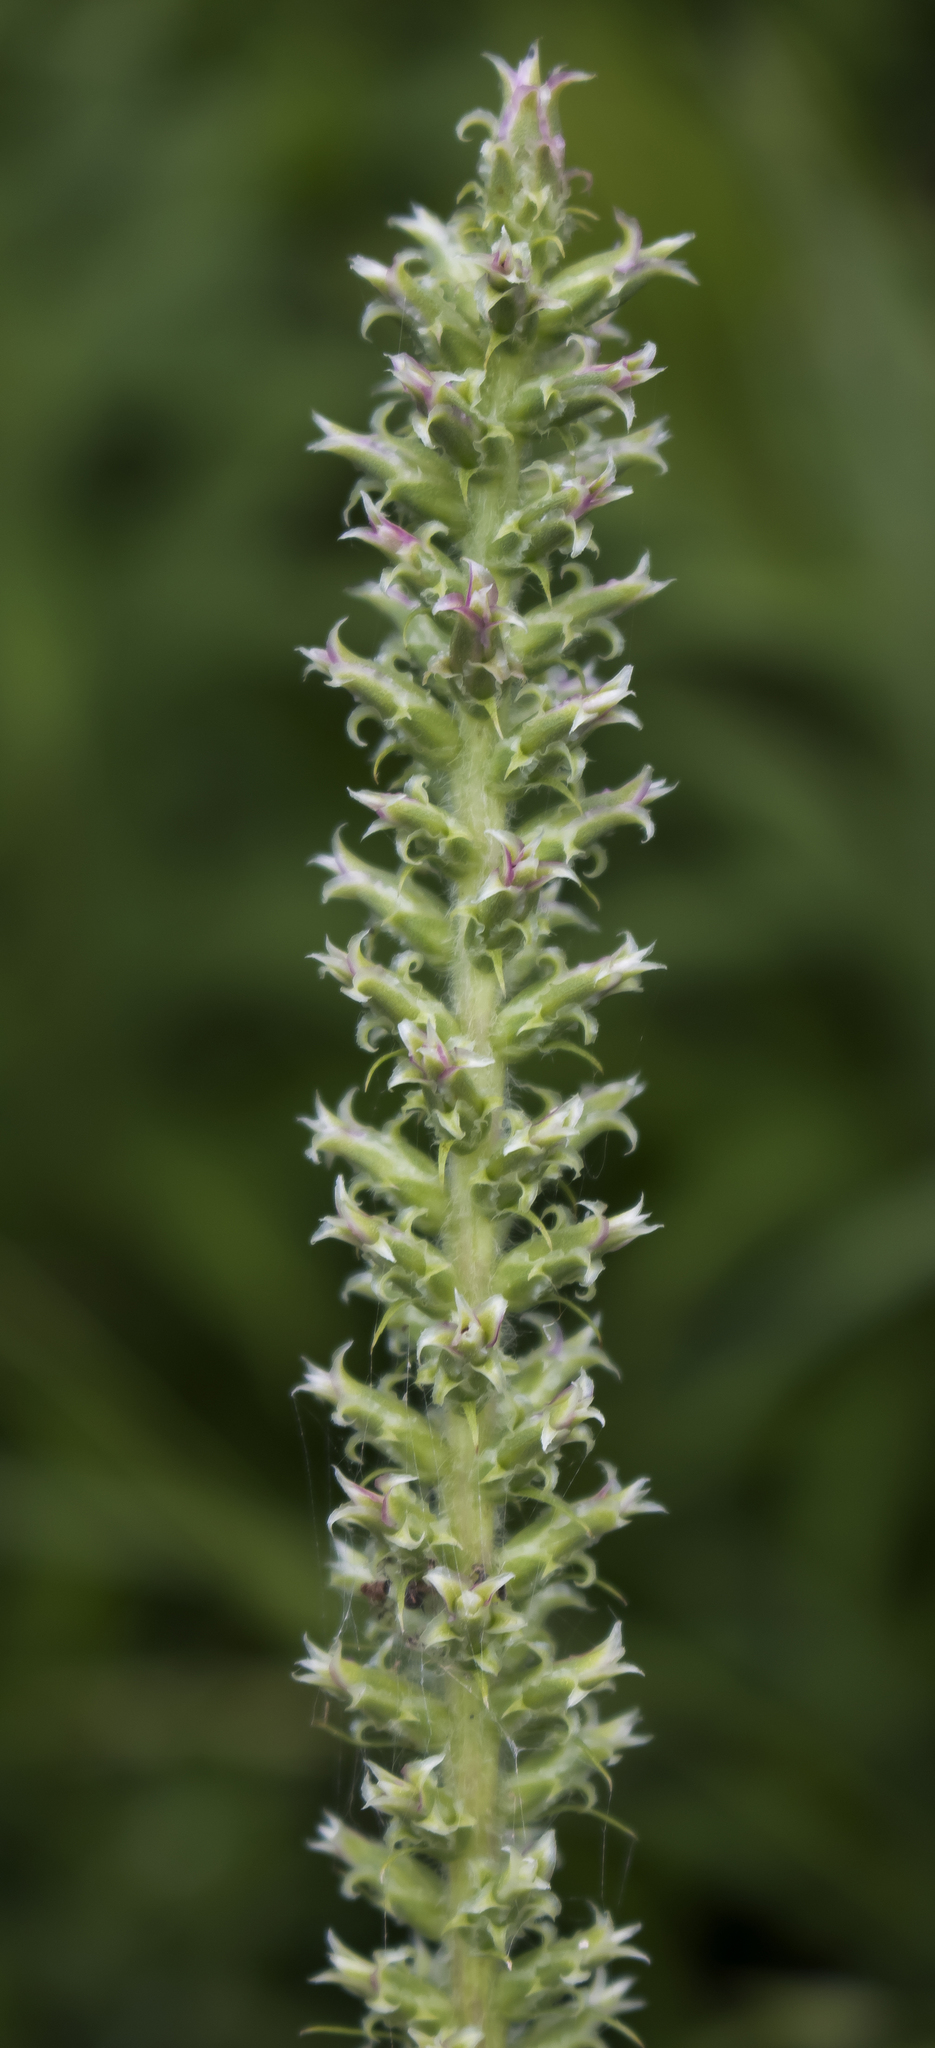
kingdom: Plantae
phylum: Tracheophyta
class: Magnoliopsida
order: Asterales
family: Asteraceae
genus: Liatris
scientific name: Liatris pycnostachya
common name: Cattail gayfeather
